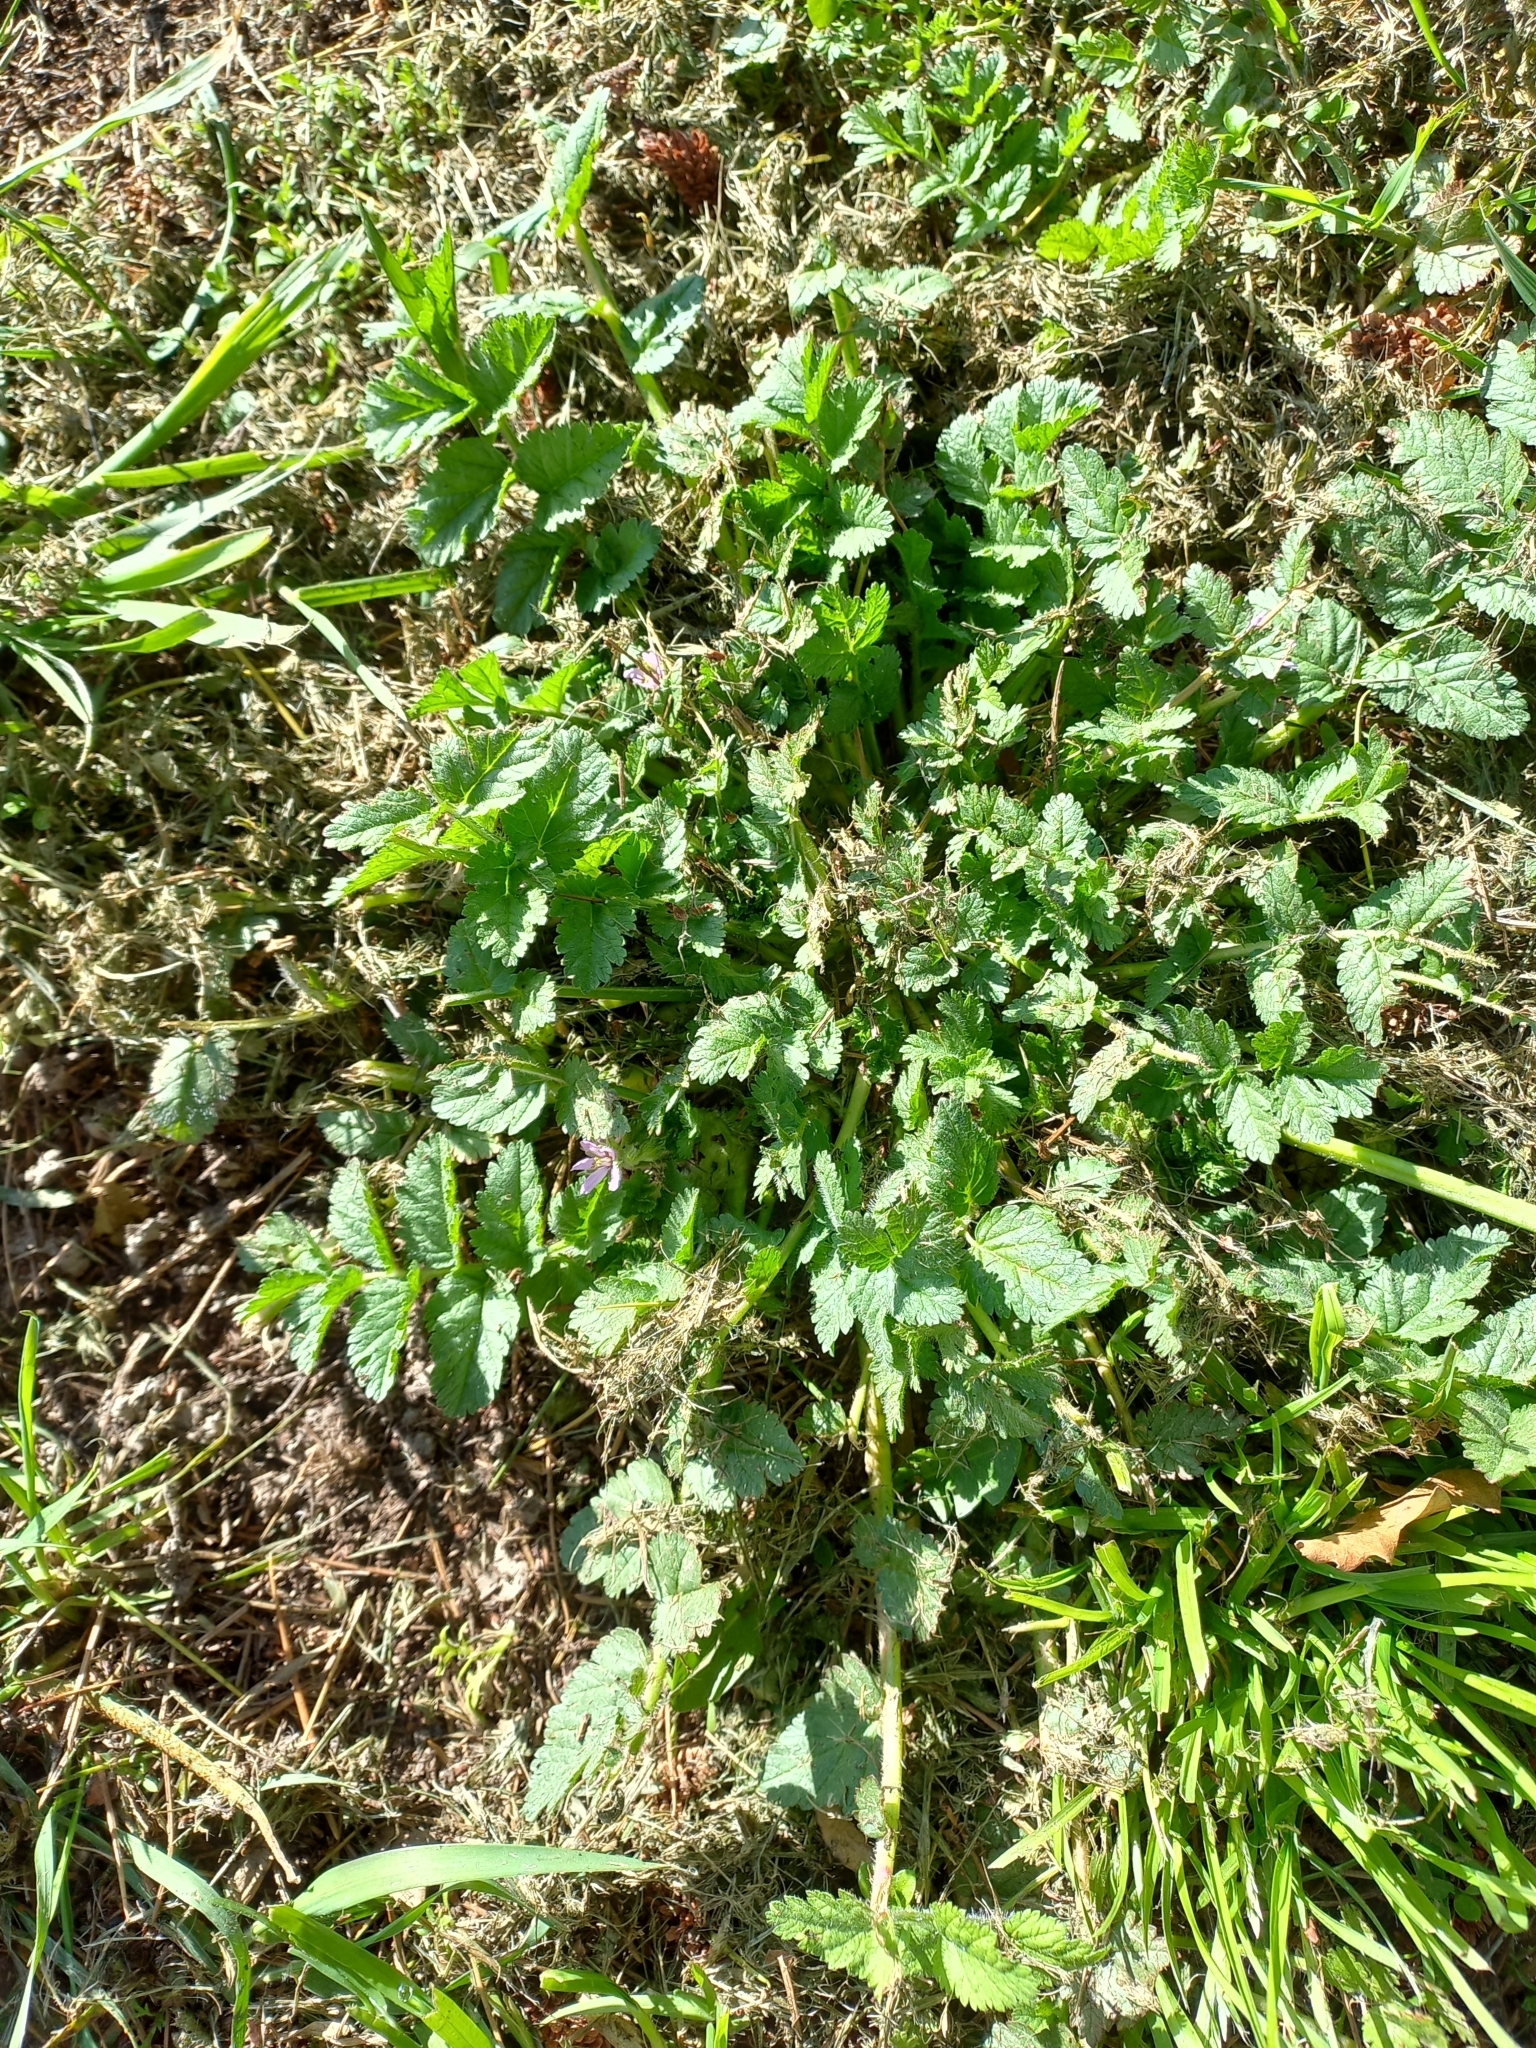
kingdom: Plantae
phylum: Tracheophyta
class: Magnoliopsida
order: Geraniales
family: Geraniaceae
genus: Erodium
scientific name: Erodium moschatum
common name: Musk stork's-bill
